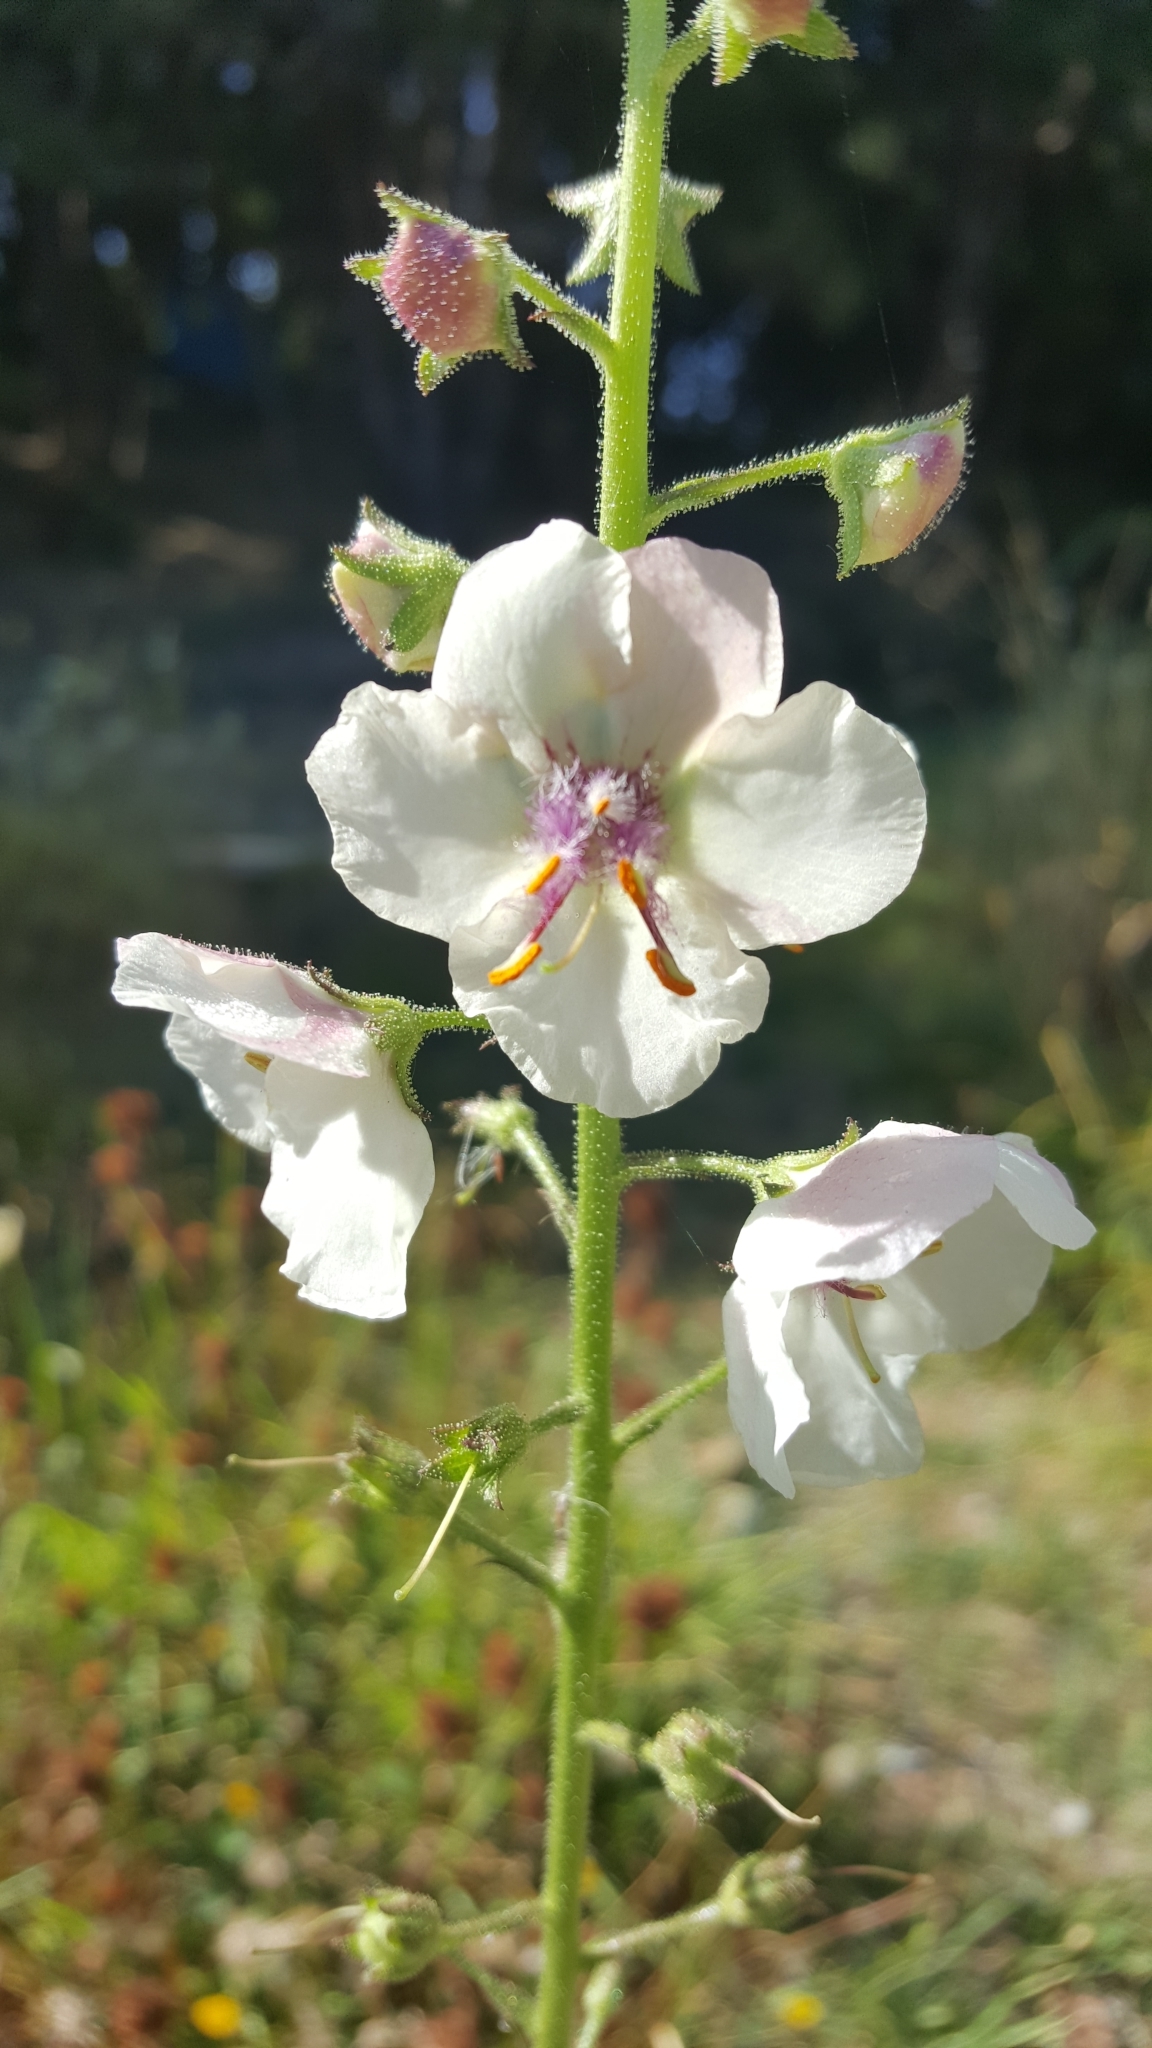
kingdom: Plantae
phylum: Tracheophyta
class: Magnoliopsida
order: Lamiales
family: Scrophulariaceae
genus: Verbascum
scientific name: Verbascum blattaria
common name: Moth mullein
